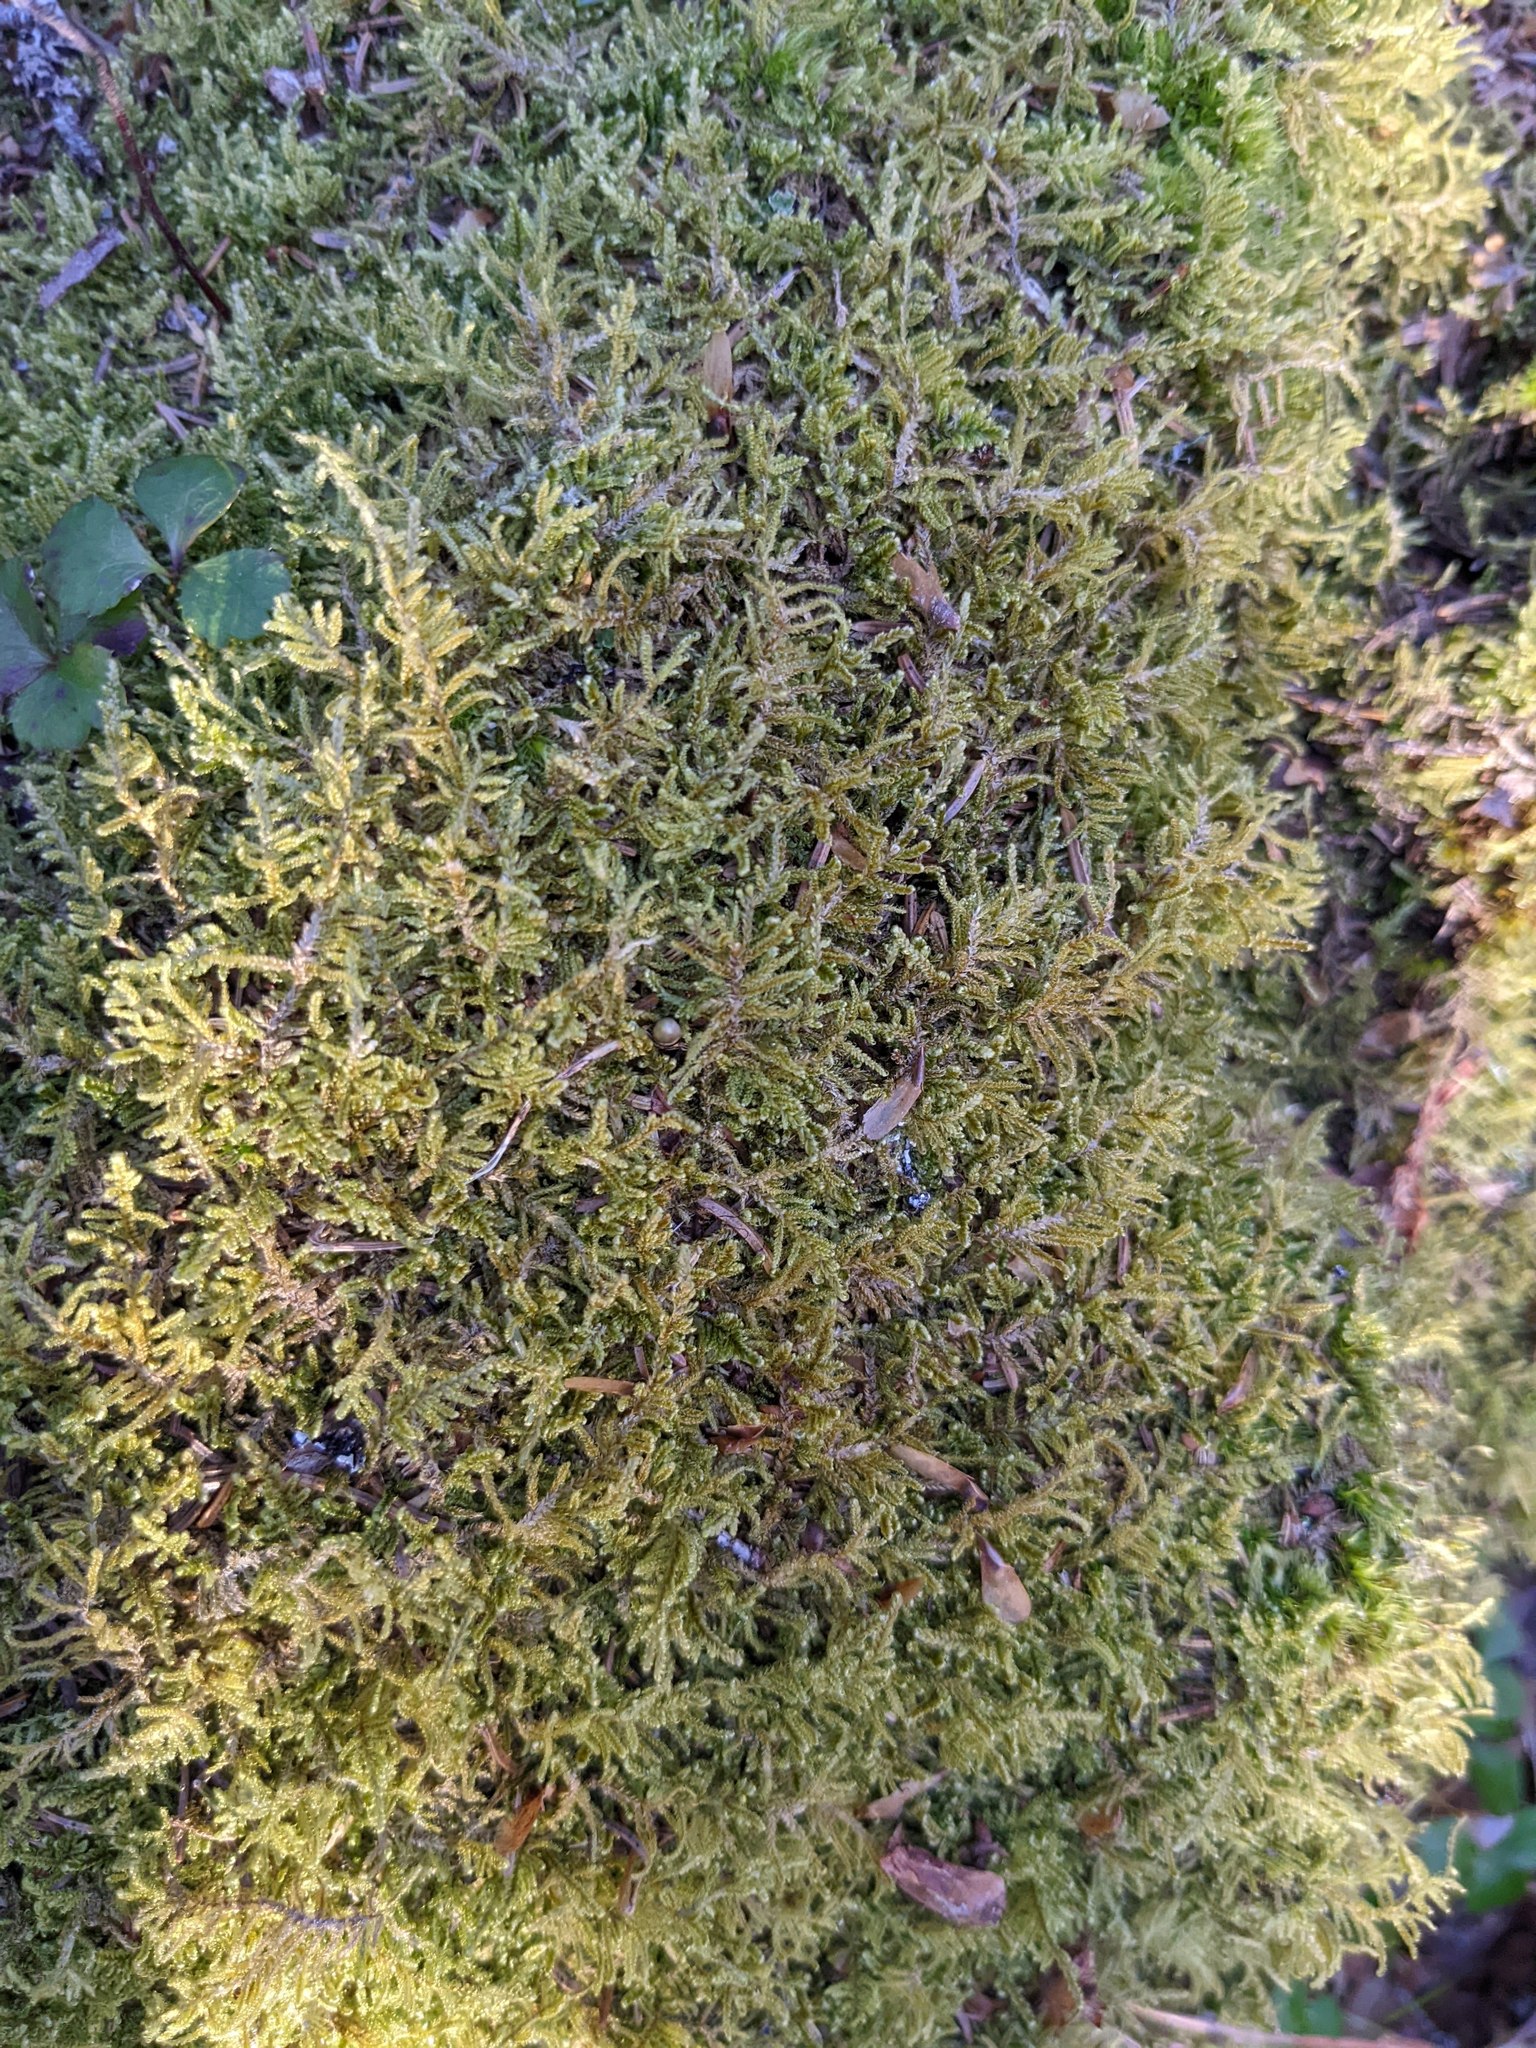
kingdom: Plantae
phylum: Bryophyta
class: Bryopsida
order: Hypnales
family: Callicladiaceae
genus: Callicladium
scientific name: Callicladium imponens
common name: Brocade moss
